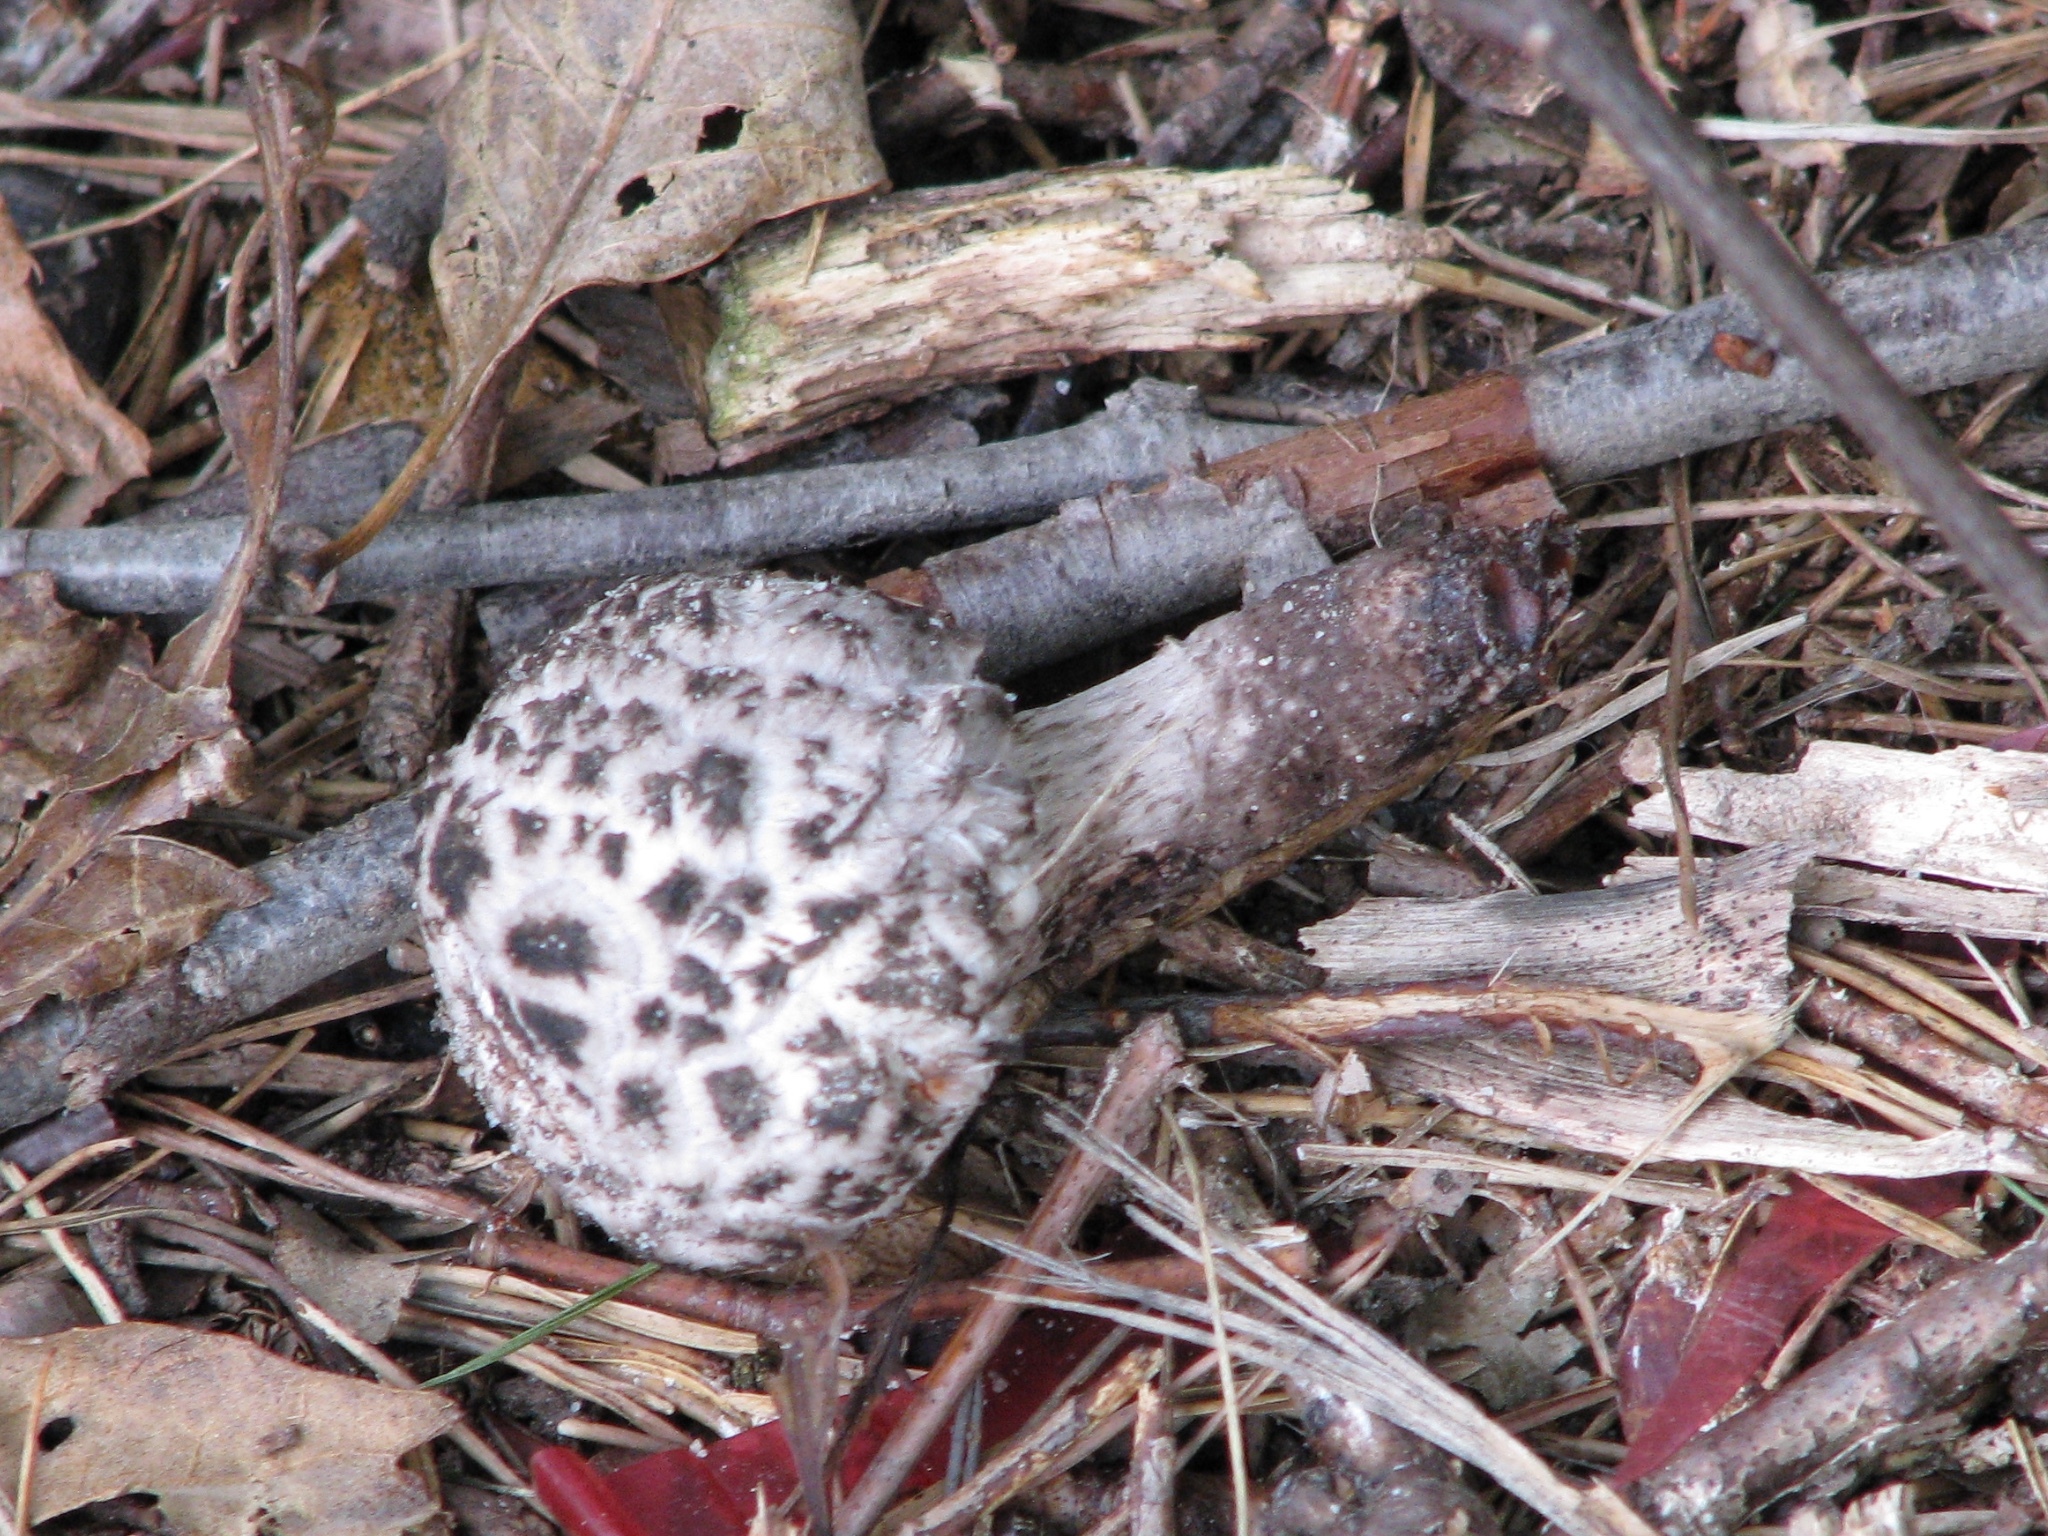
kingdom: Fungi
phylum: Basidiomycota
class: Agaricomycetes
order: Boletales
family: Boletaceae
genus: Strobilomyces
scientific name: Strobilomyces strobilaceus
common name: Old man of the woods
